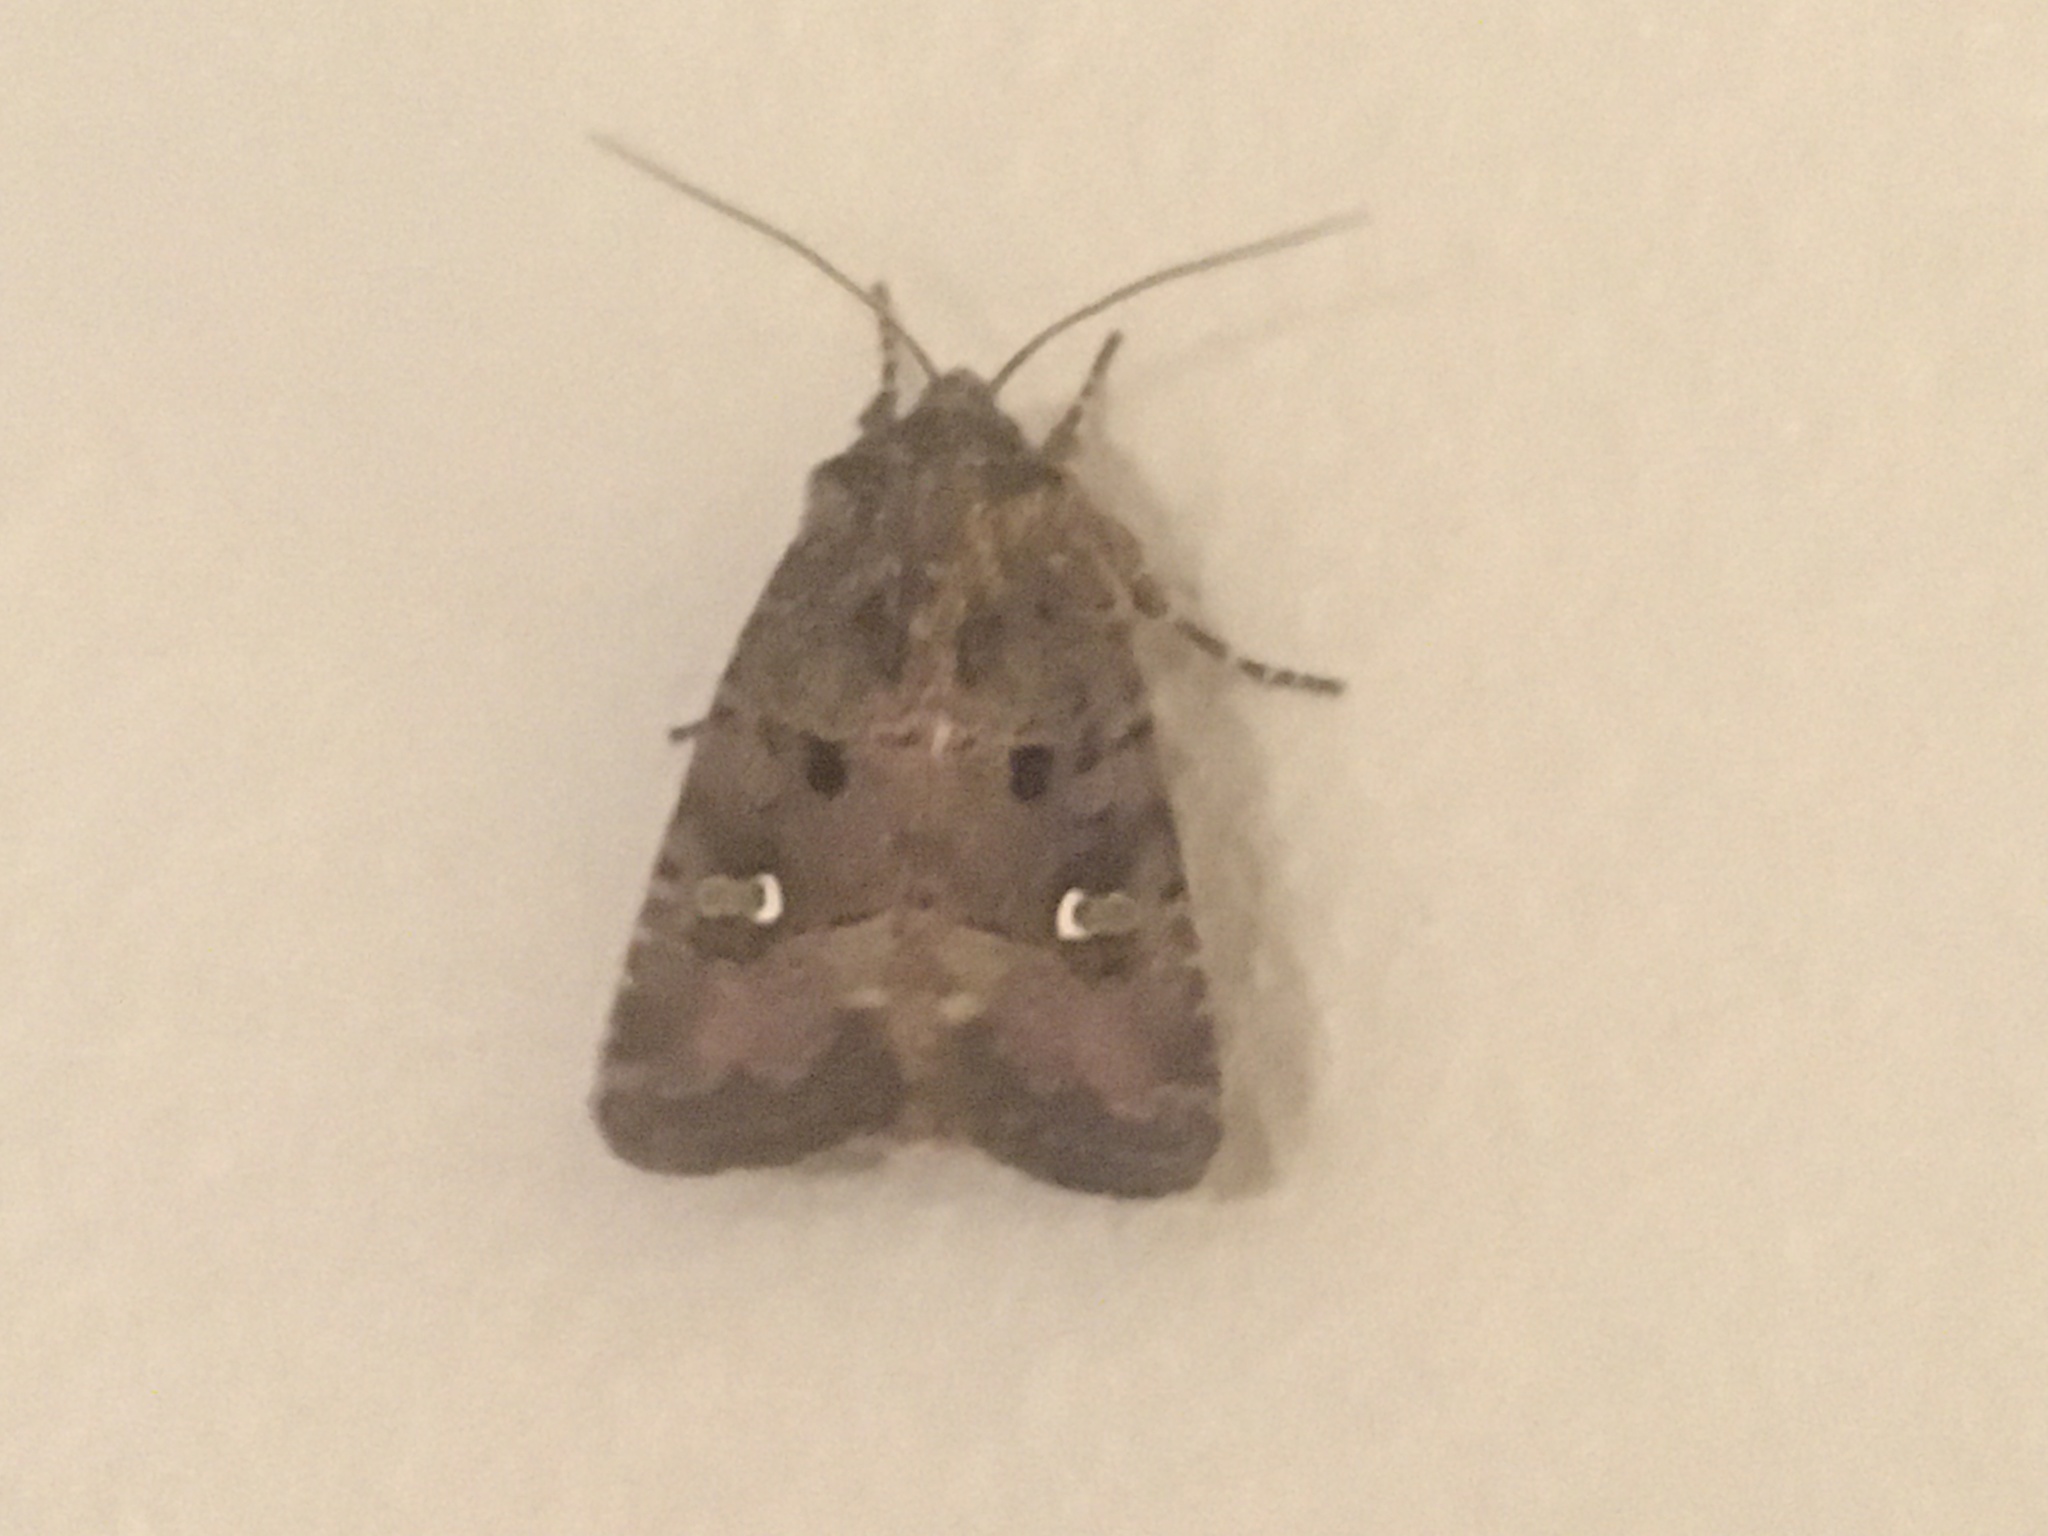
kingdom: Animalia
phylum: Arthropoda
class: Insecta
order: Lepidoptera
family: Noctuidae
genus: Lacinipolia
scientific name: Lacinipolia renigera
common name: Kidney-spotted minor
